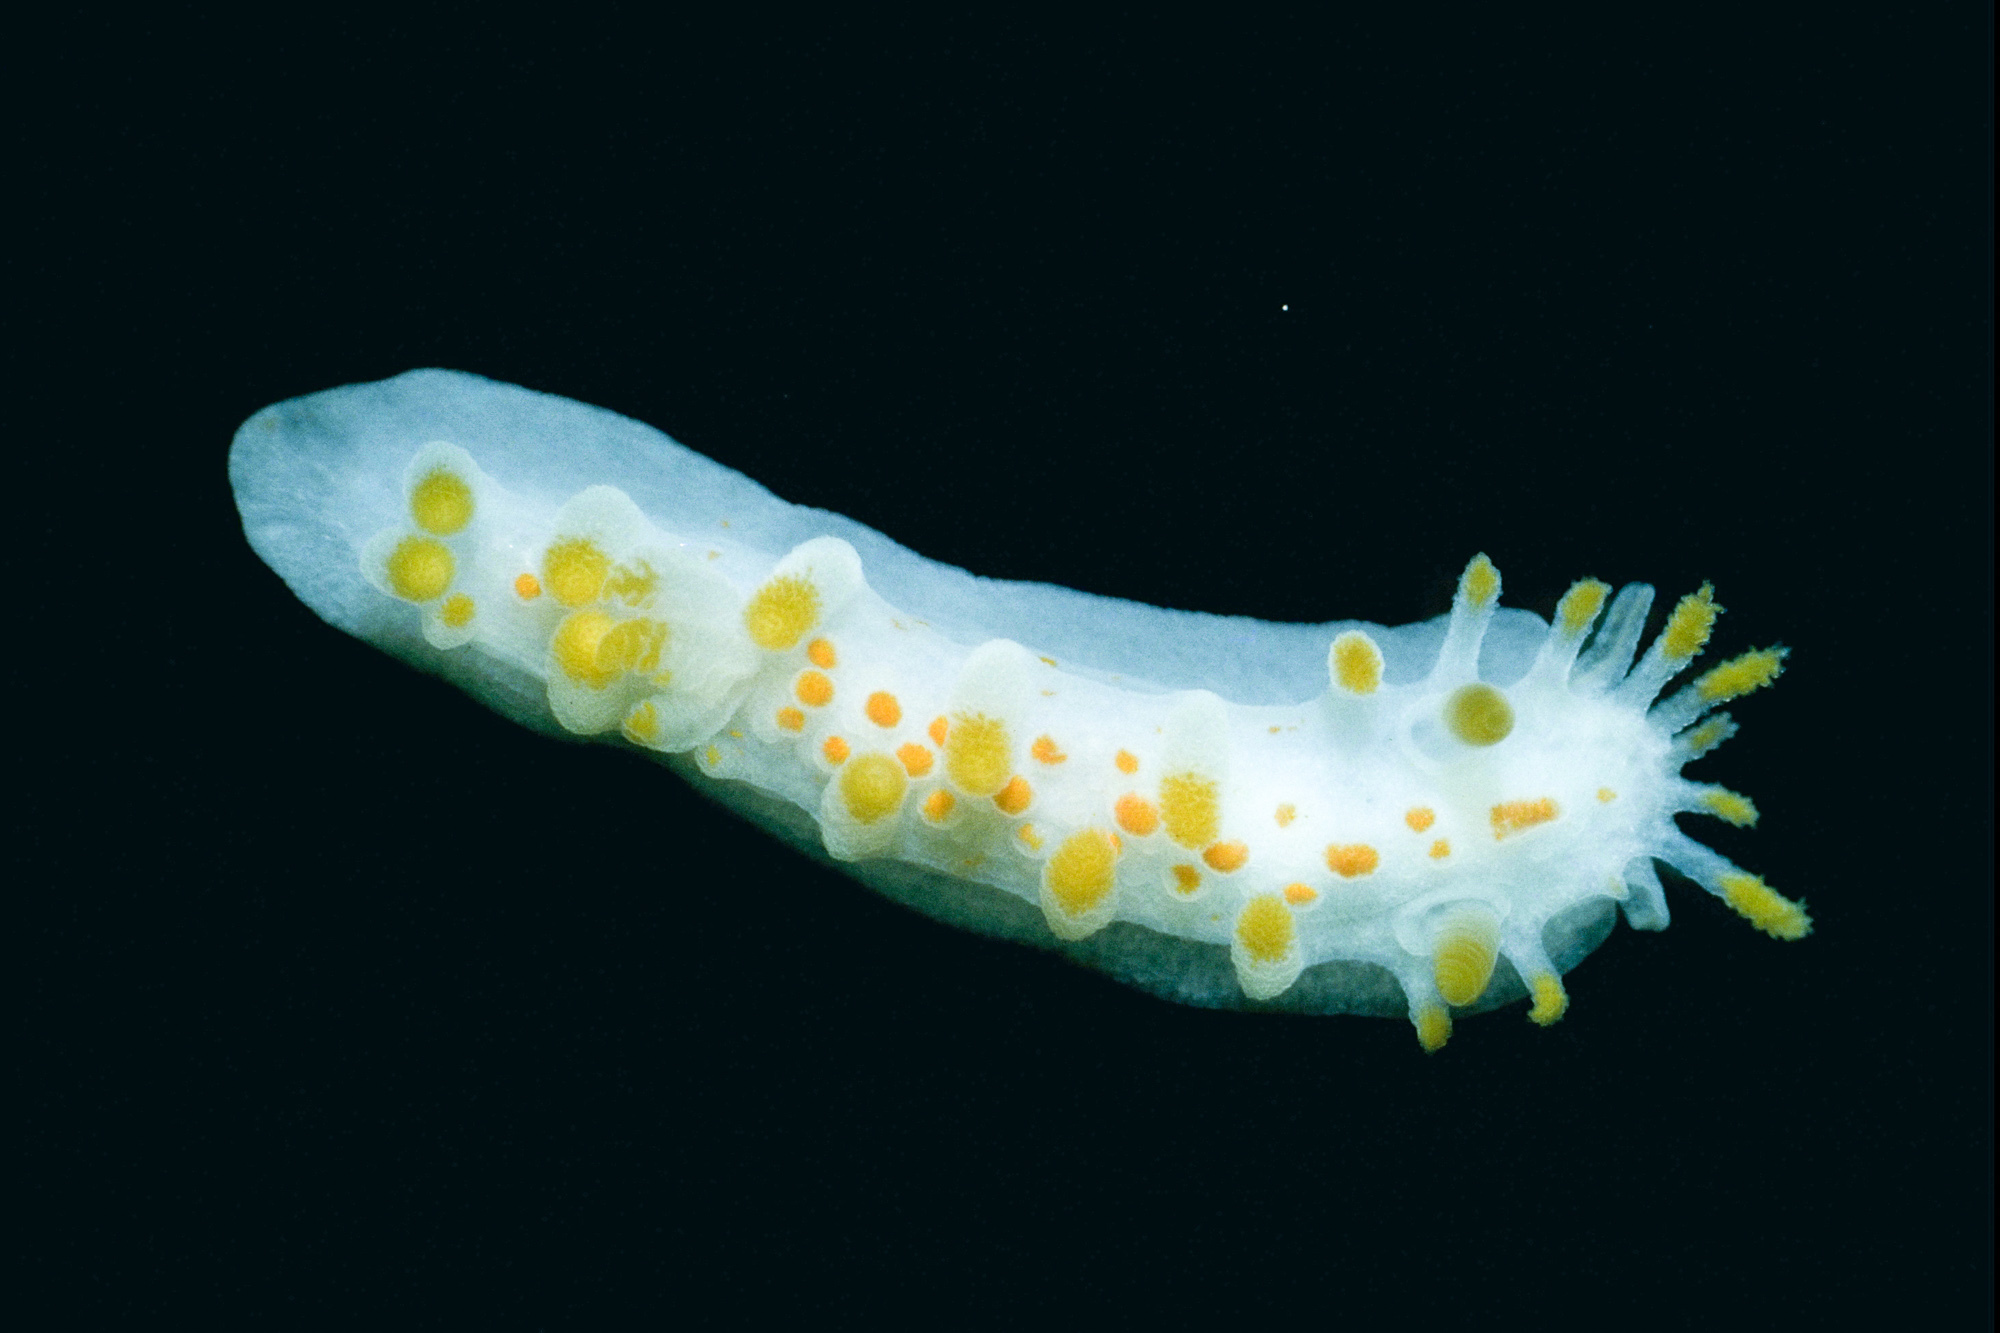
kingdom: Animalia
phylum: Mollusca
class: Gastropoda
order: Nudibranchia
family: Polyceridae
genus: Limacia
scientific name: Limacia clavigera
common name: Orange-clubbed sea slug
